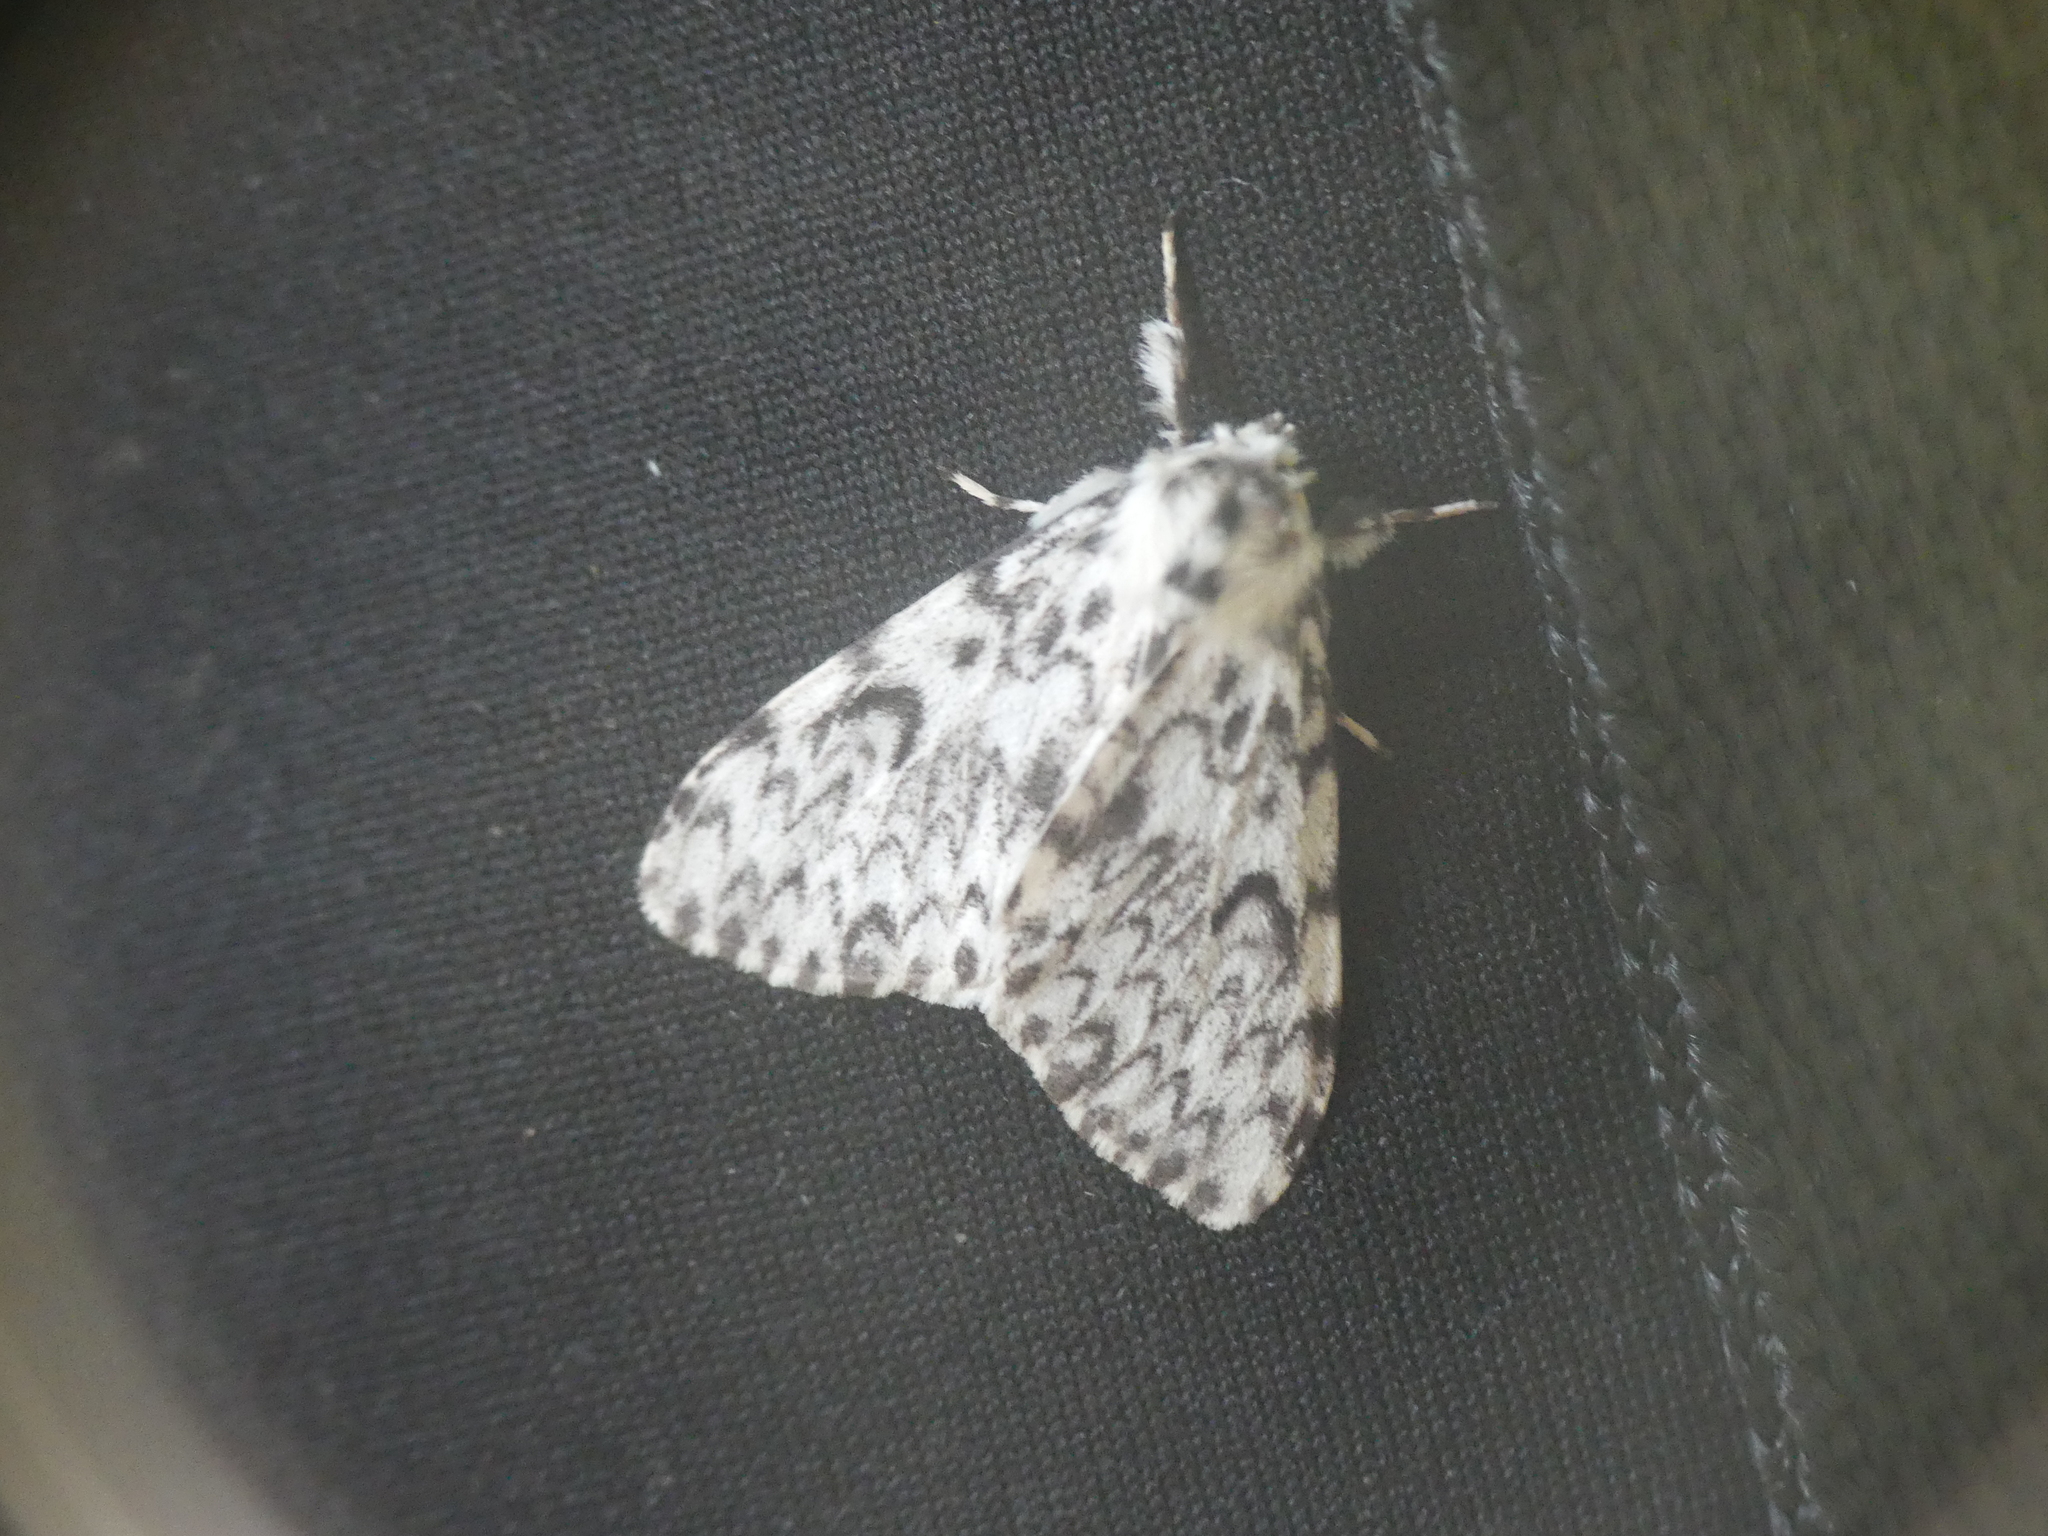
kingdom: Animalia
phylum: Arthropoda
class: Insecta
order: Lepidoptera
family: Erebidae
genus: Lymantria
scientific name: Lymantria monacha
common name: Black arches
